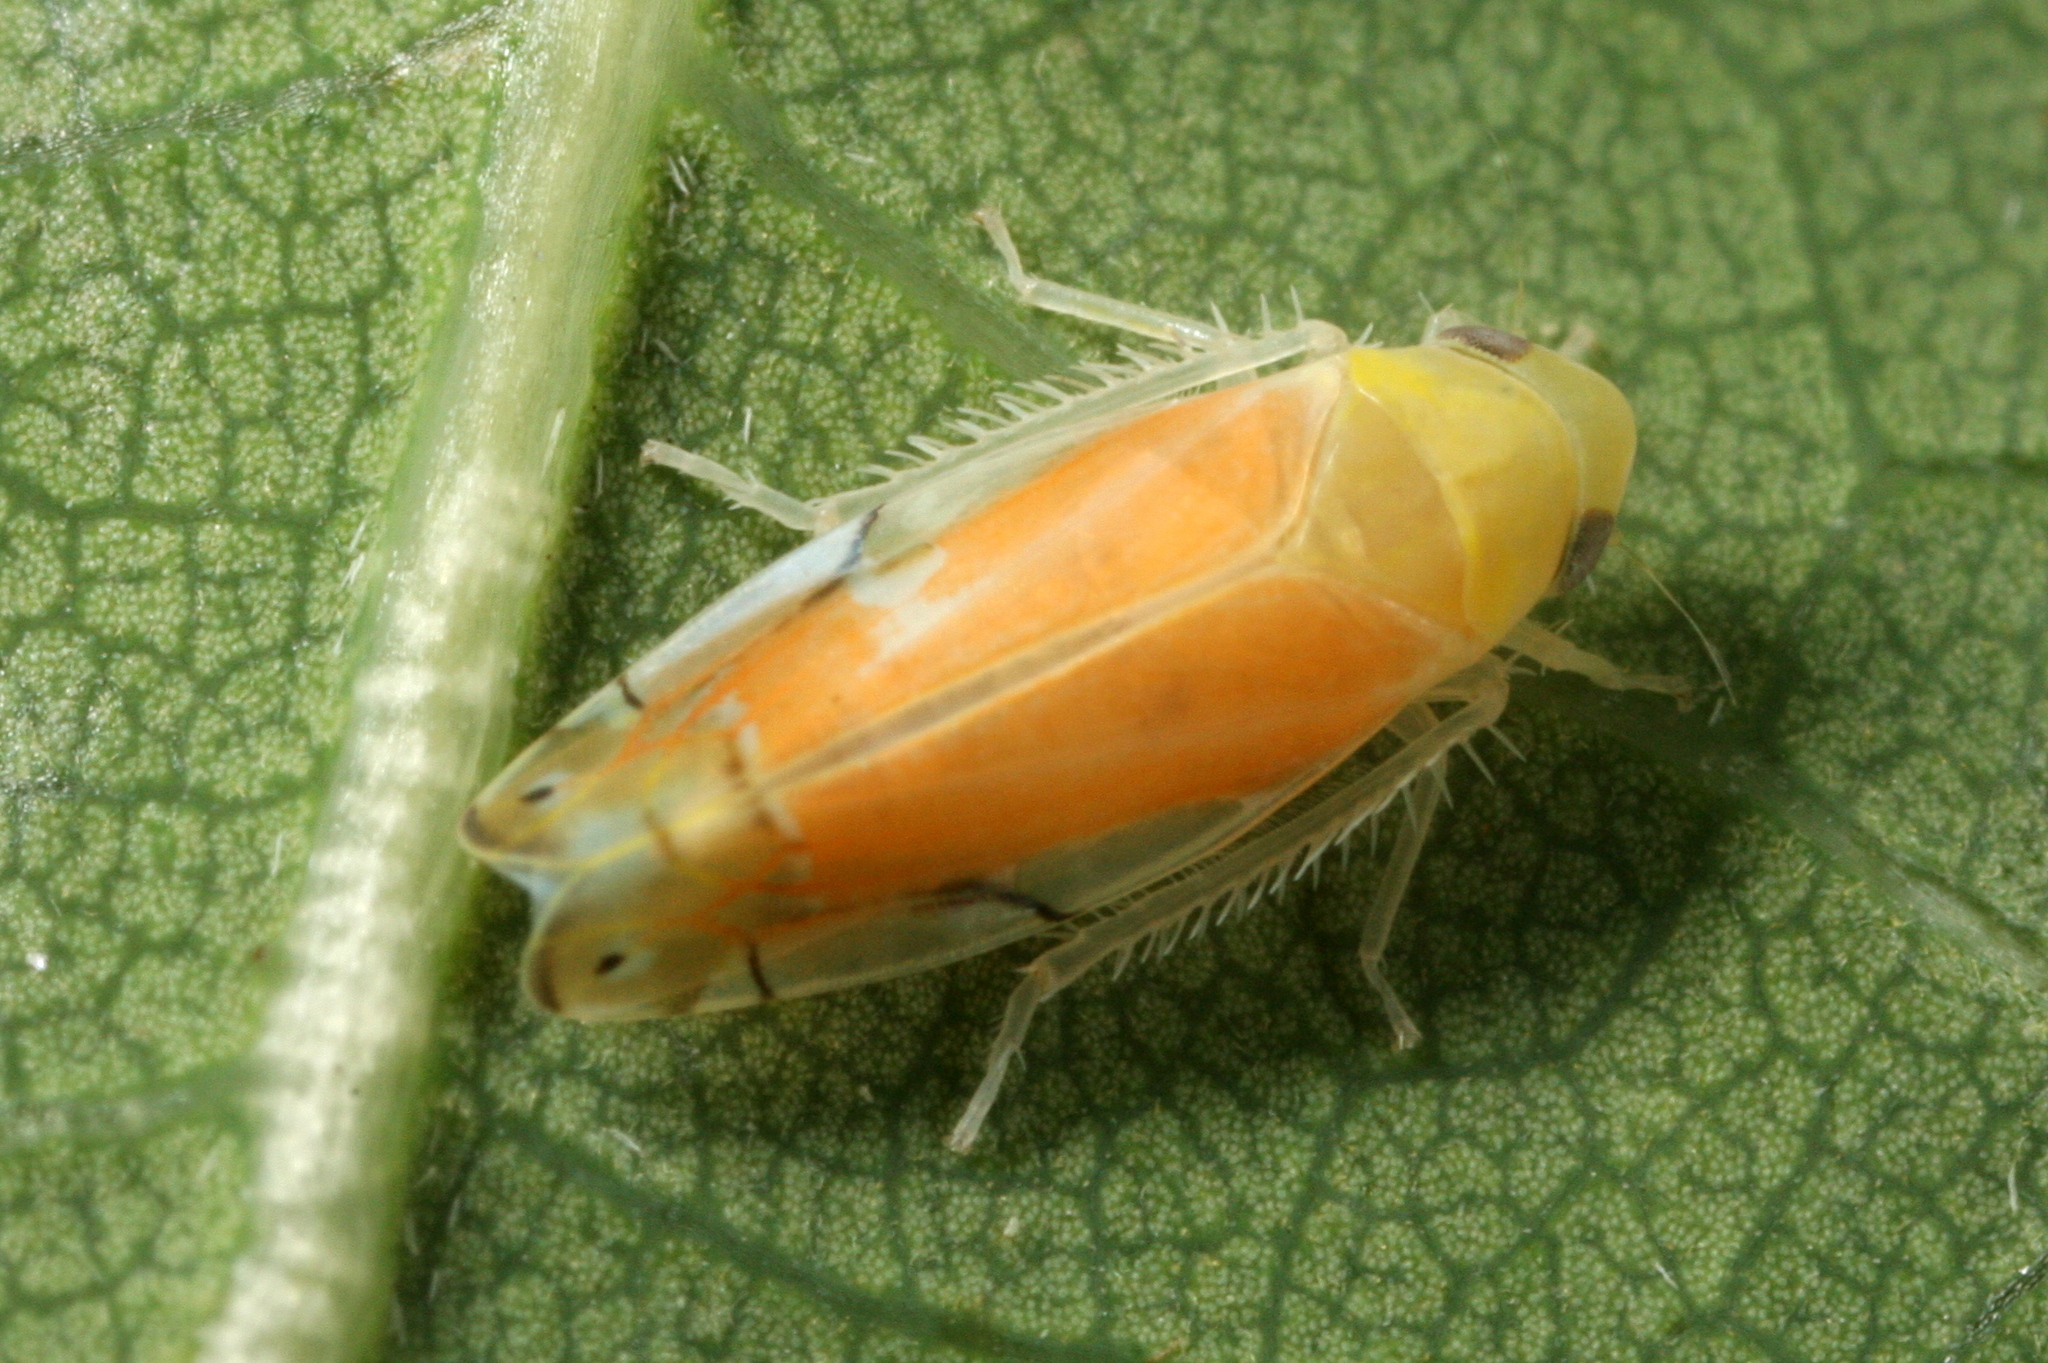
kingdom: Animalia
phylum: Arthropoda
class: Insecta
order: Hemiptera
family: Cicadellidae
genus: Eurhadina
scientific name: Eurhadina pulchella
